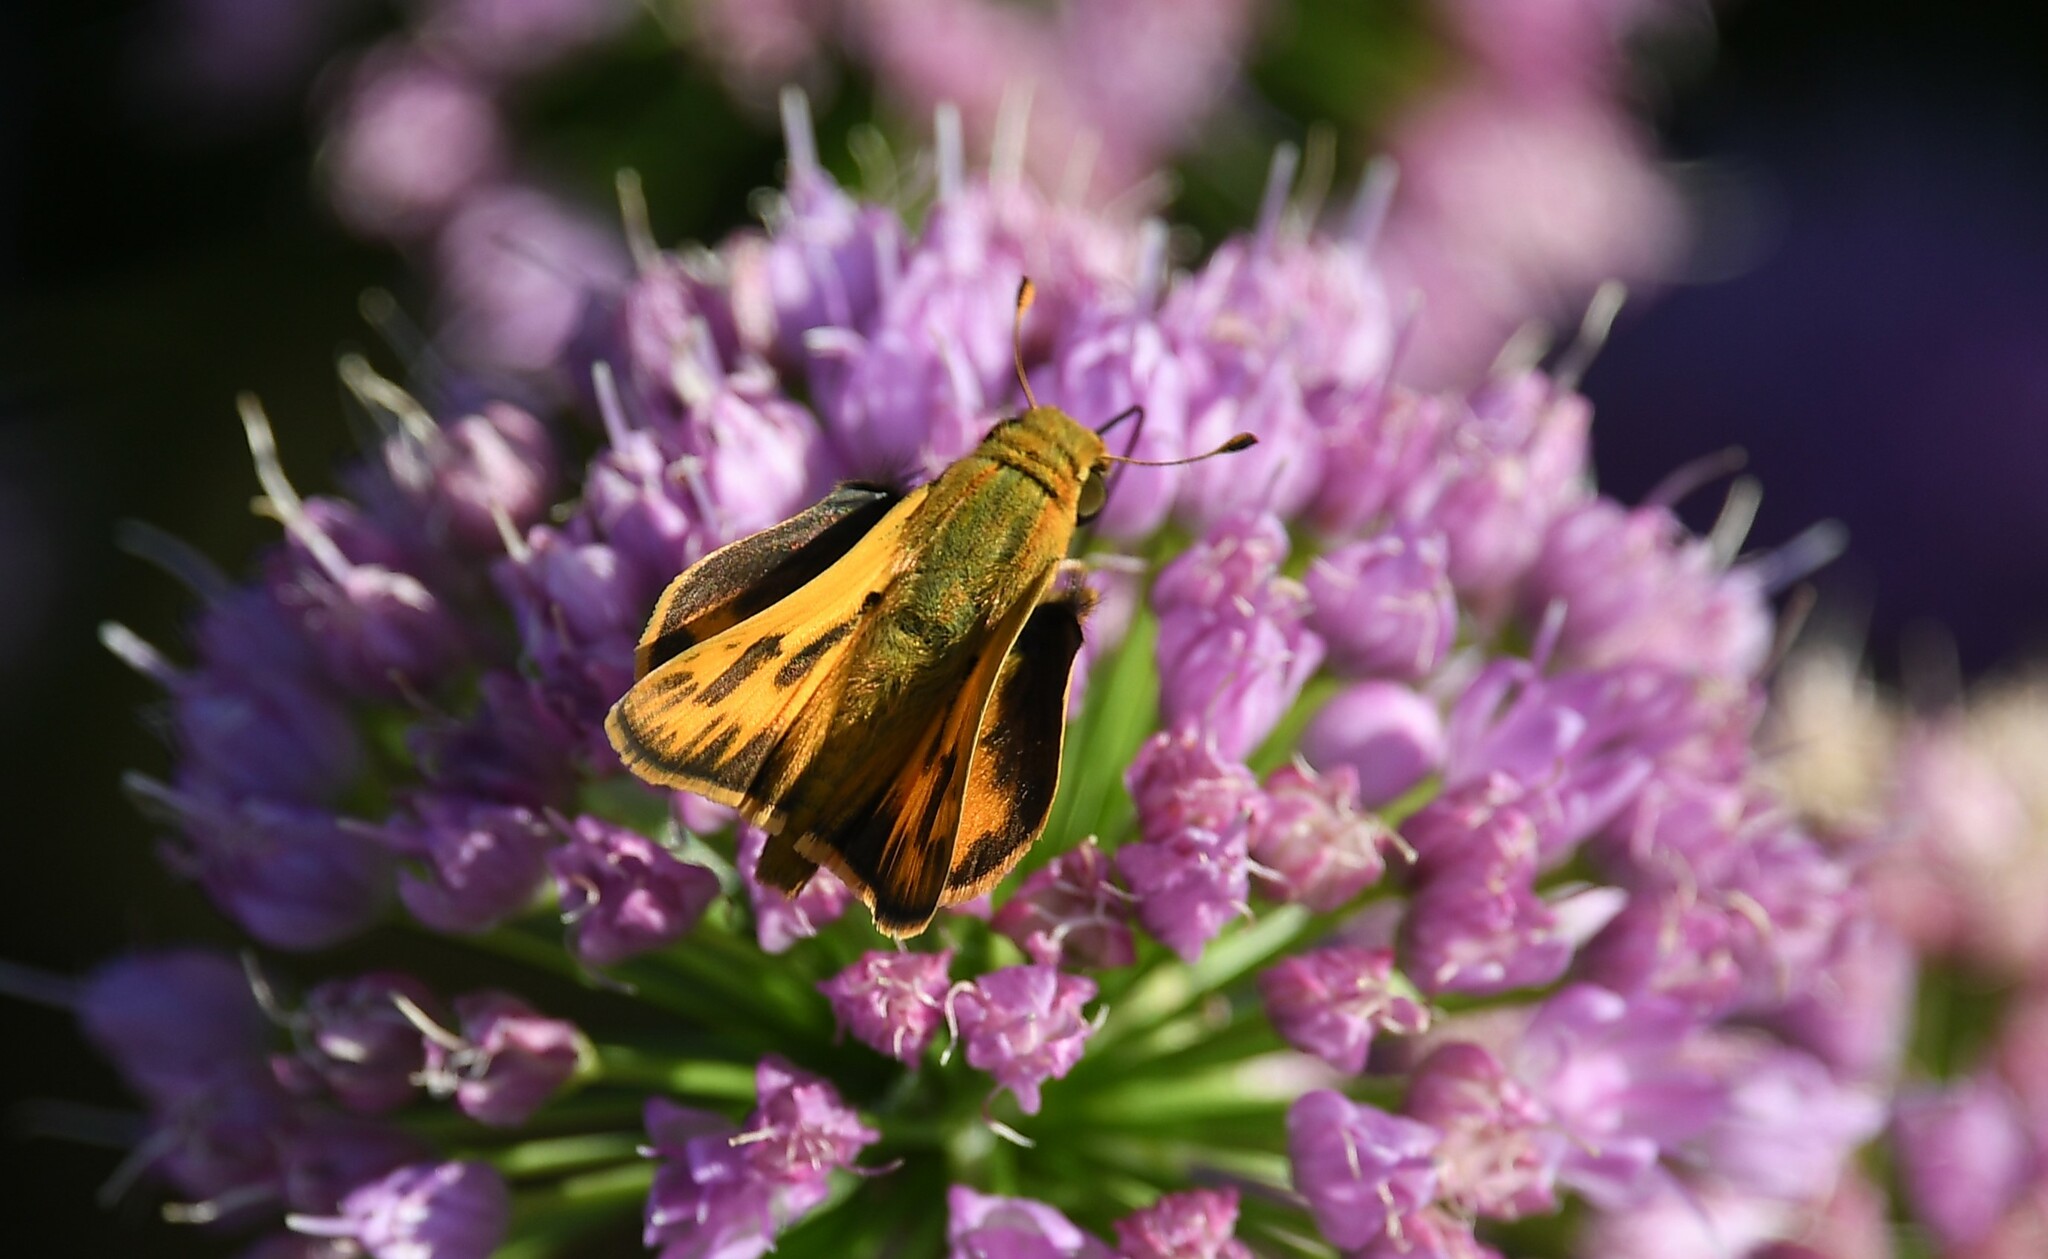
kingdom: Animalia
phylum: Arthropoda
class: Insecta
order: Lepidoptera
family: Hesperiidae
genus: Hylephila
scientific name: Hylephila phyleus
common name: Fiery skipper
